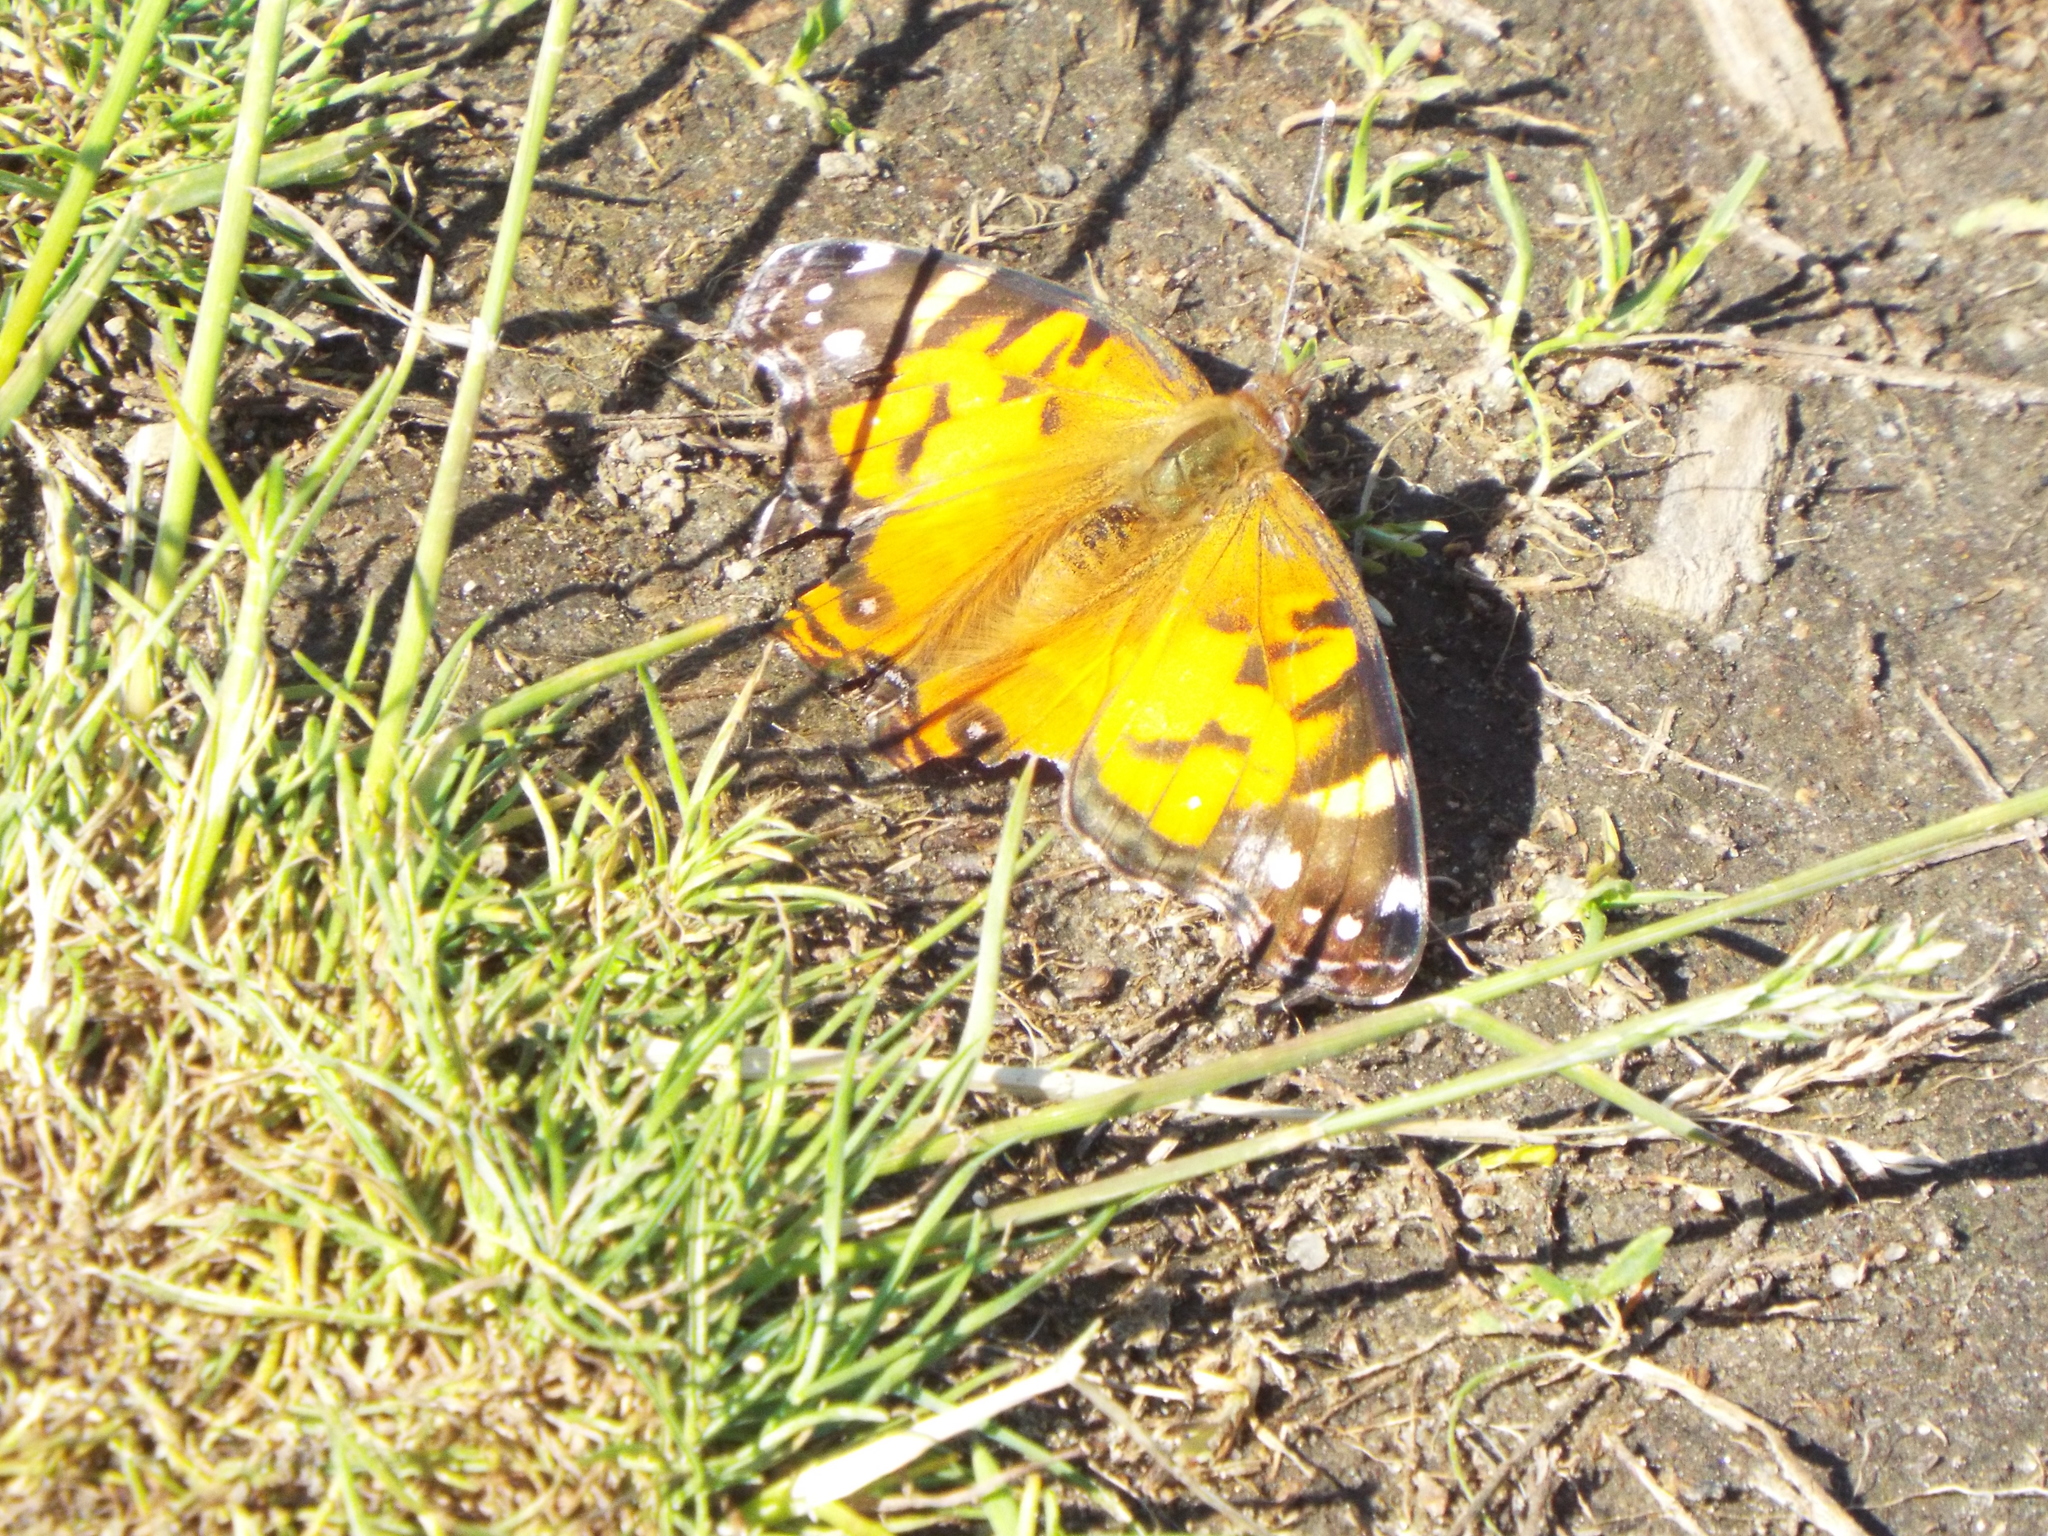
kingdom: Animalia
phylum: Arthropoda
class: Insecta
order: Lepidoptera
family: Nymphalidae
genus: Vanessa
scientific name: Vanessa virginiensis
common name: American lady
